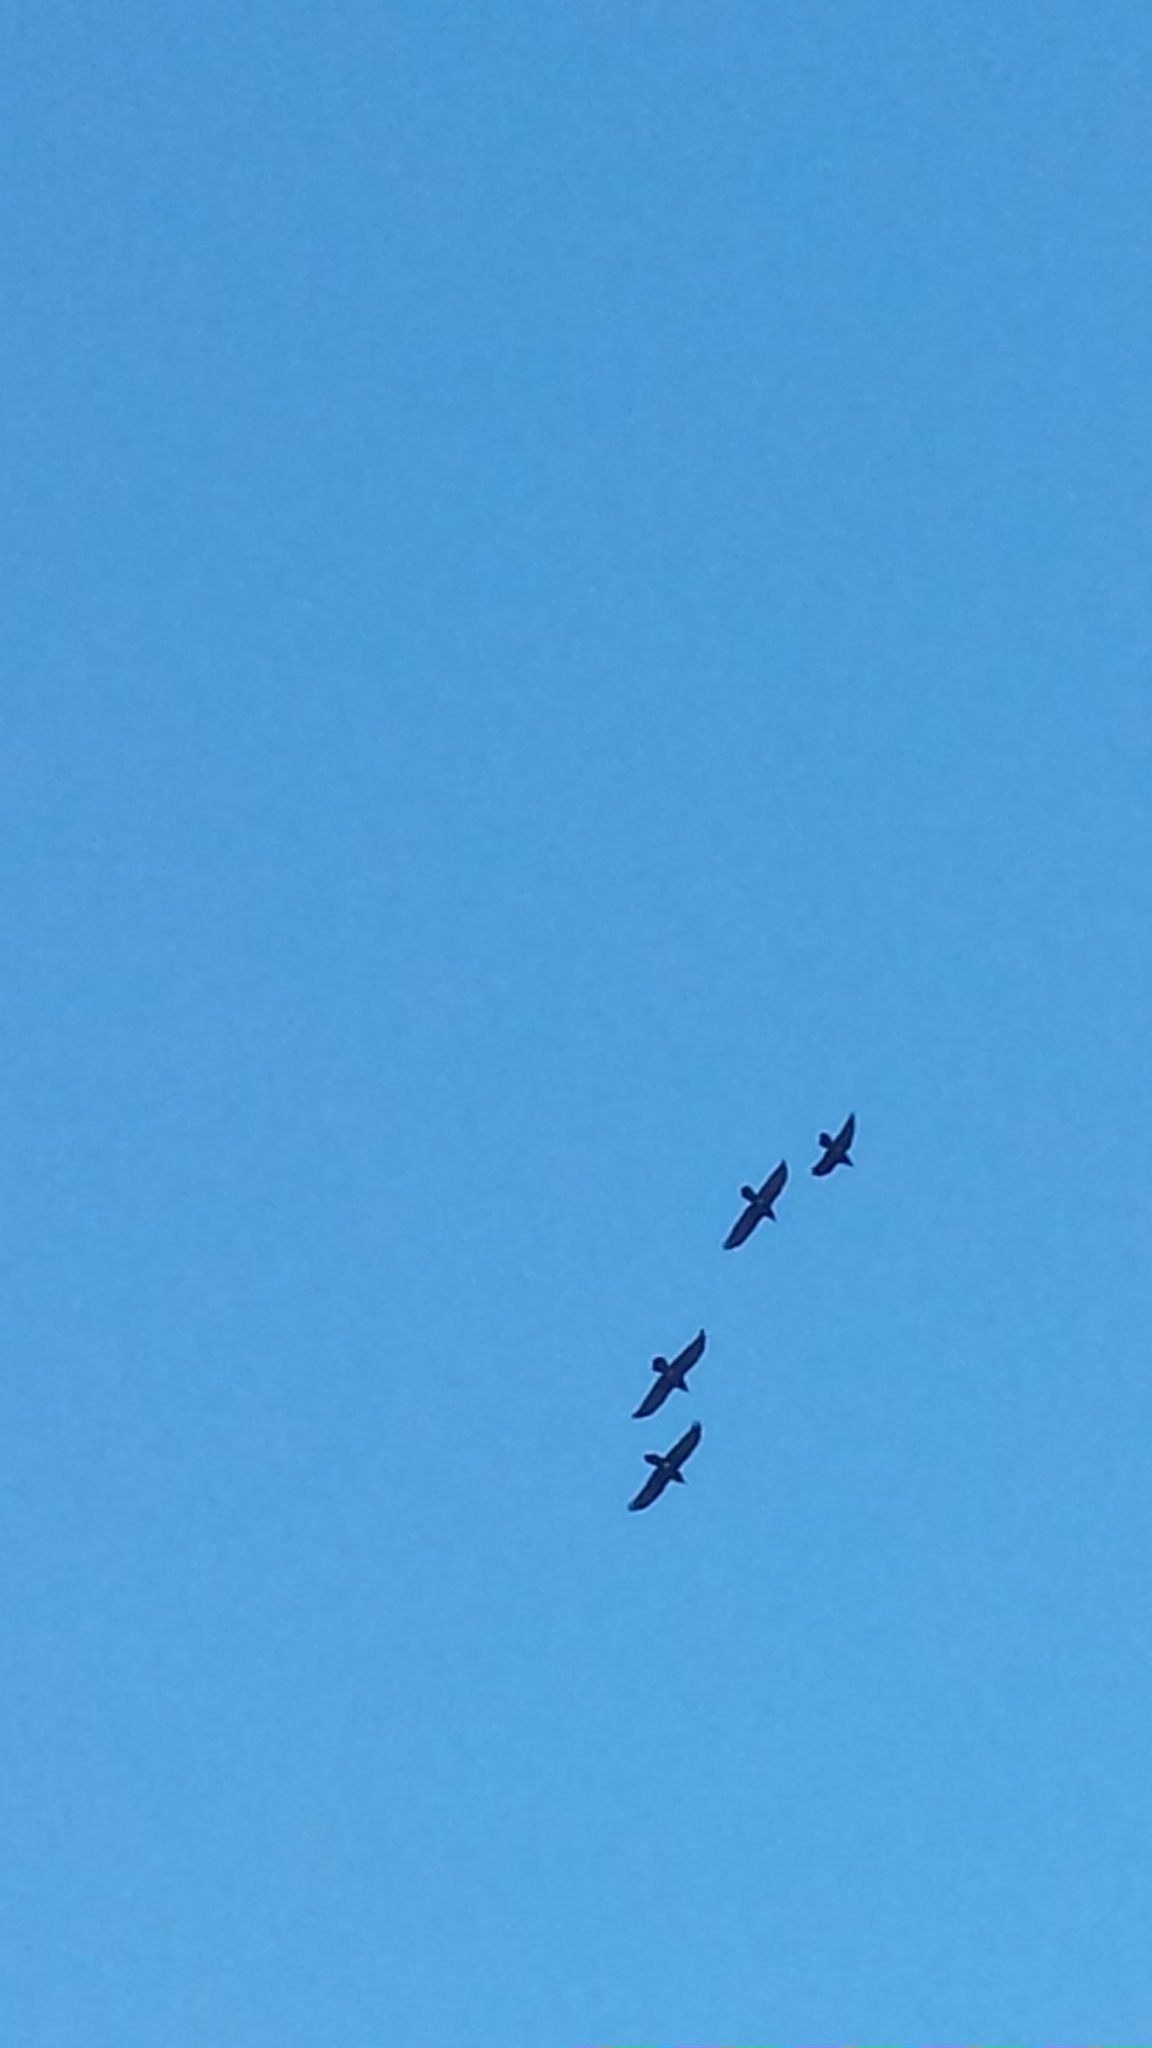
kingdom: Animalia
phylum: Chordata
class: Aves
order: Passeriformes
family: Corvidae
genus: Corvus
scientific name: Corvus corax
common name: Common raven
